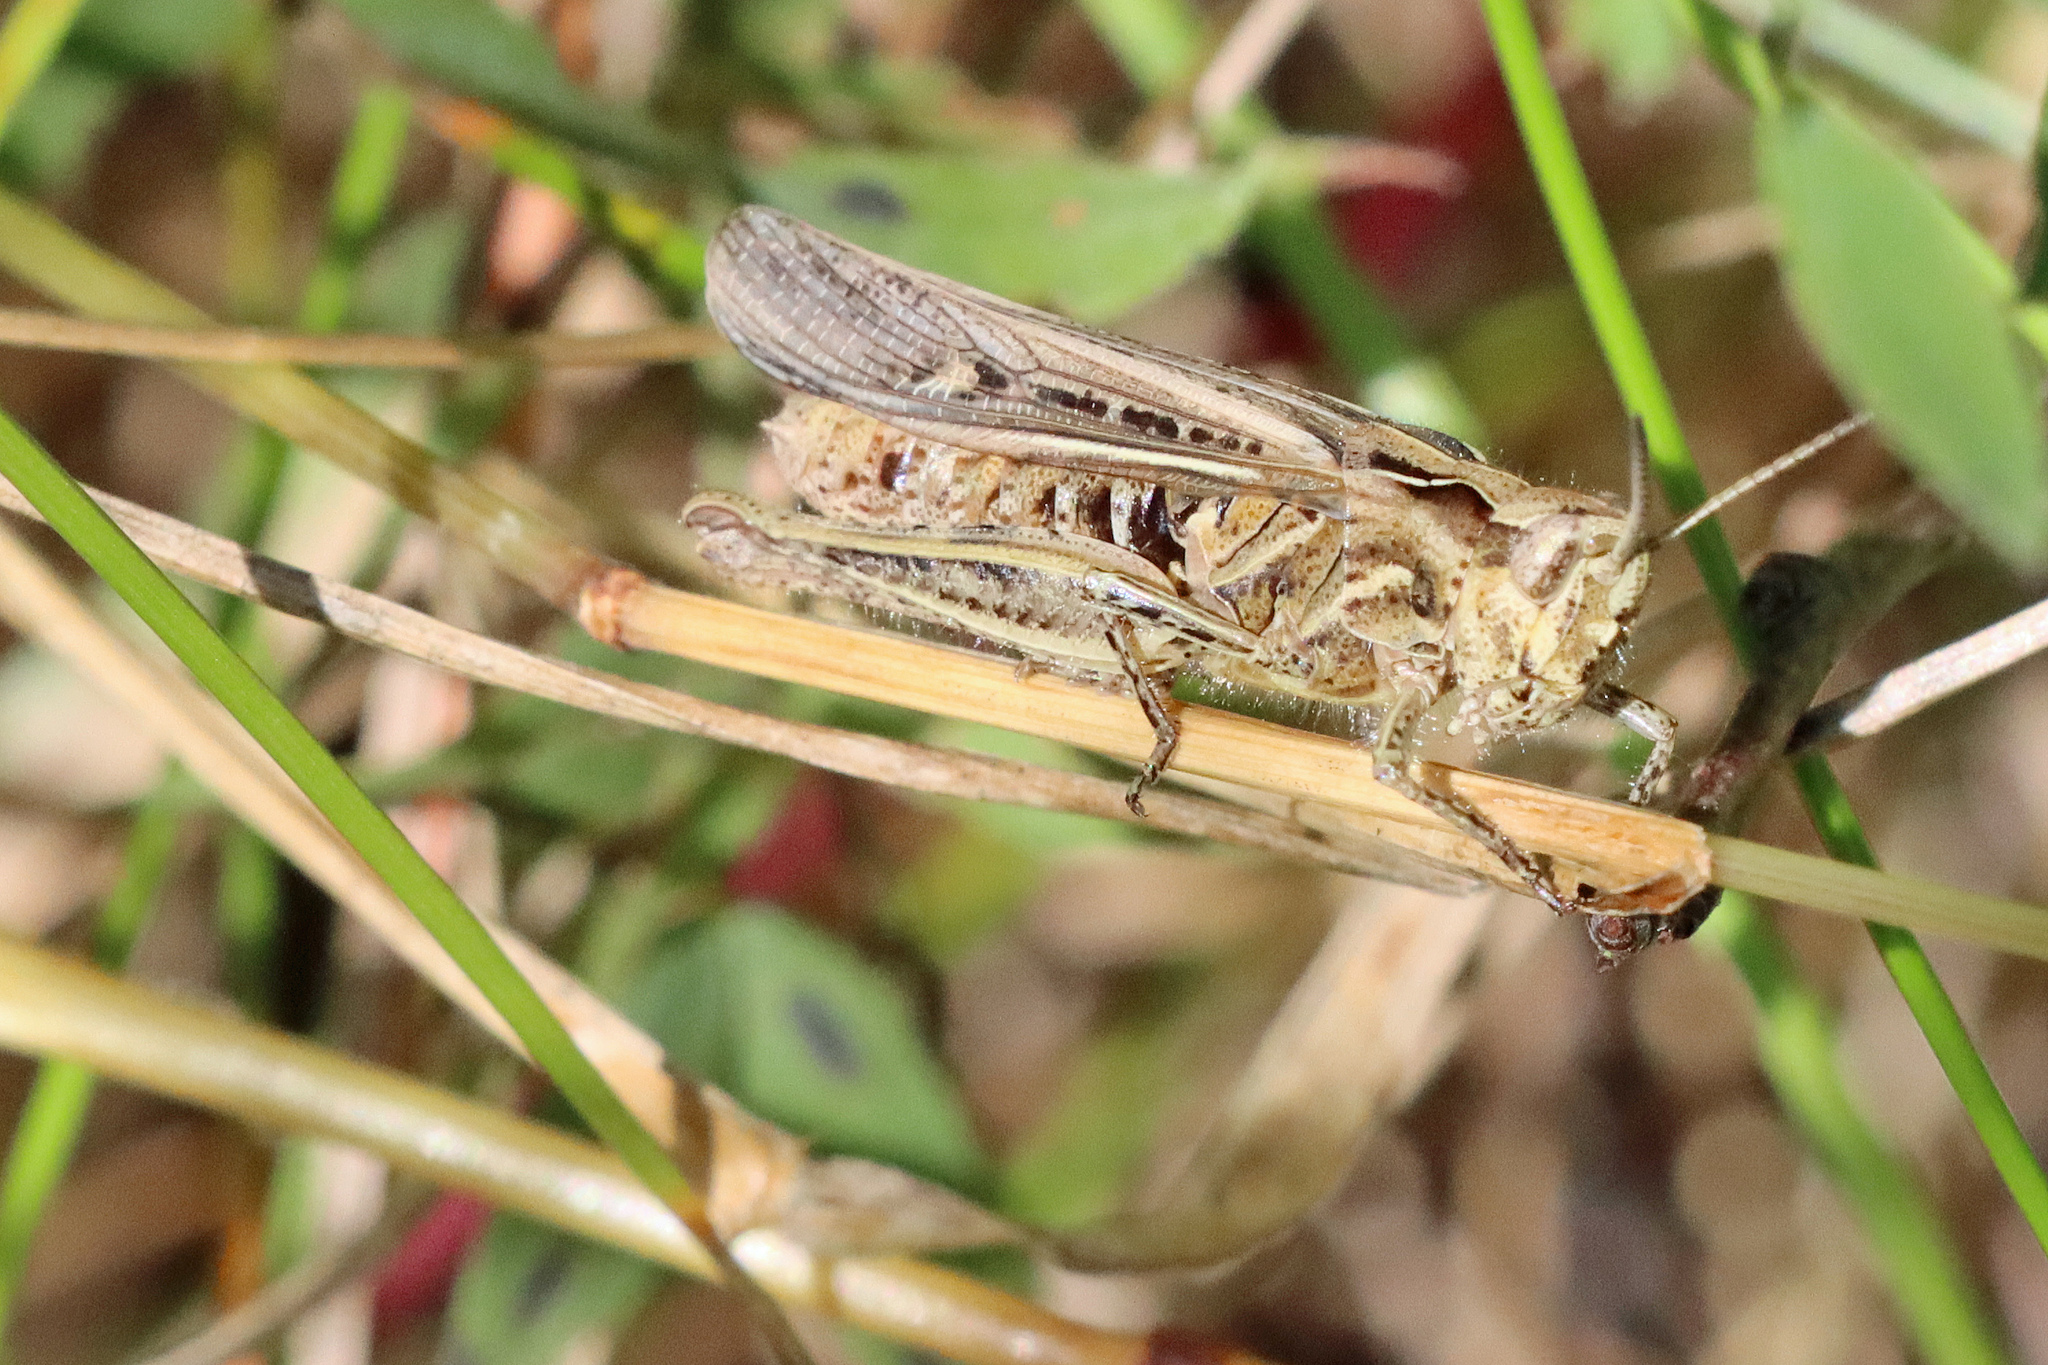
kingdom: Animalia
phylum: Arthropoda
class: Insecta
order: Orthoptera
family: Acrididae
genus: Chorthippus
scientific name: Chorthippus brunneus
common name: Field grasshopper
